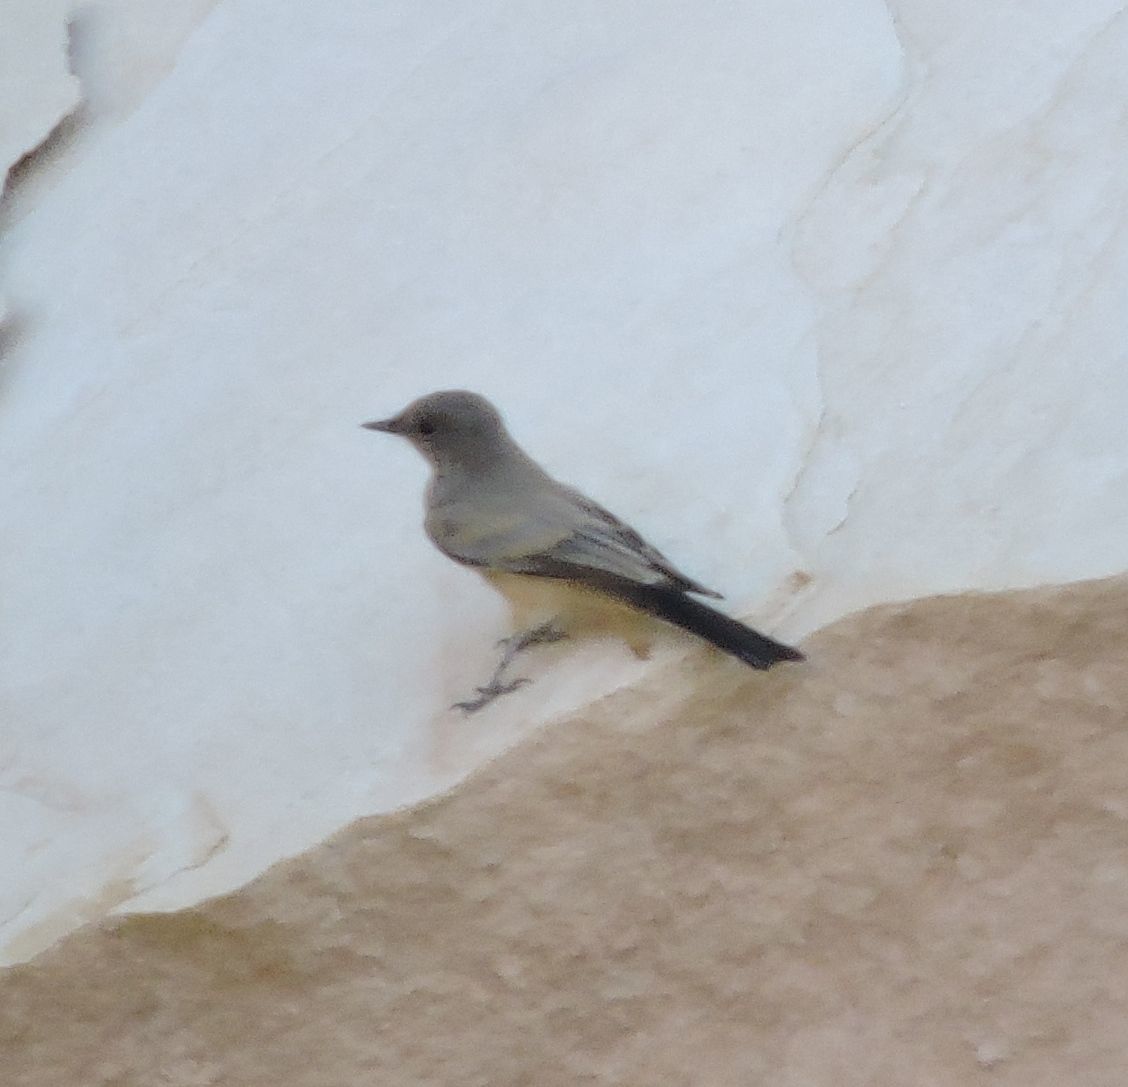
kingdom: Animalia
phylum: Chordata
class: Aves
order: Passeriformes
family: Tyrannidae
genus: Sayornis
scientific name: Sayornis saya
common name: Say's phoebe
